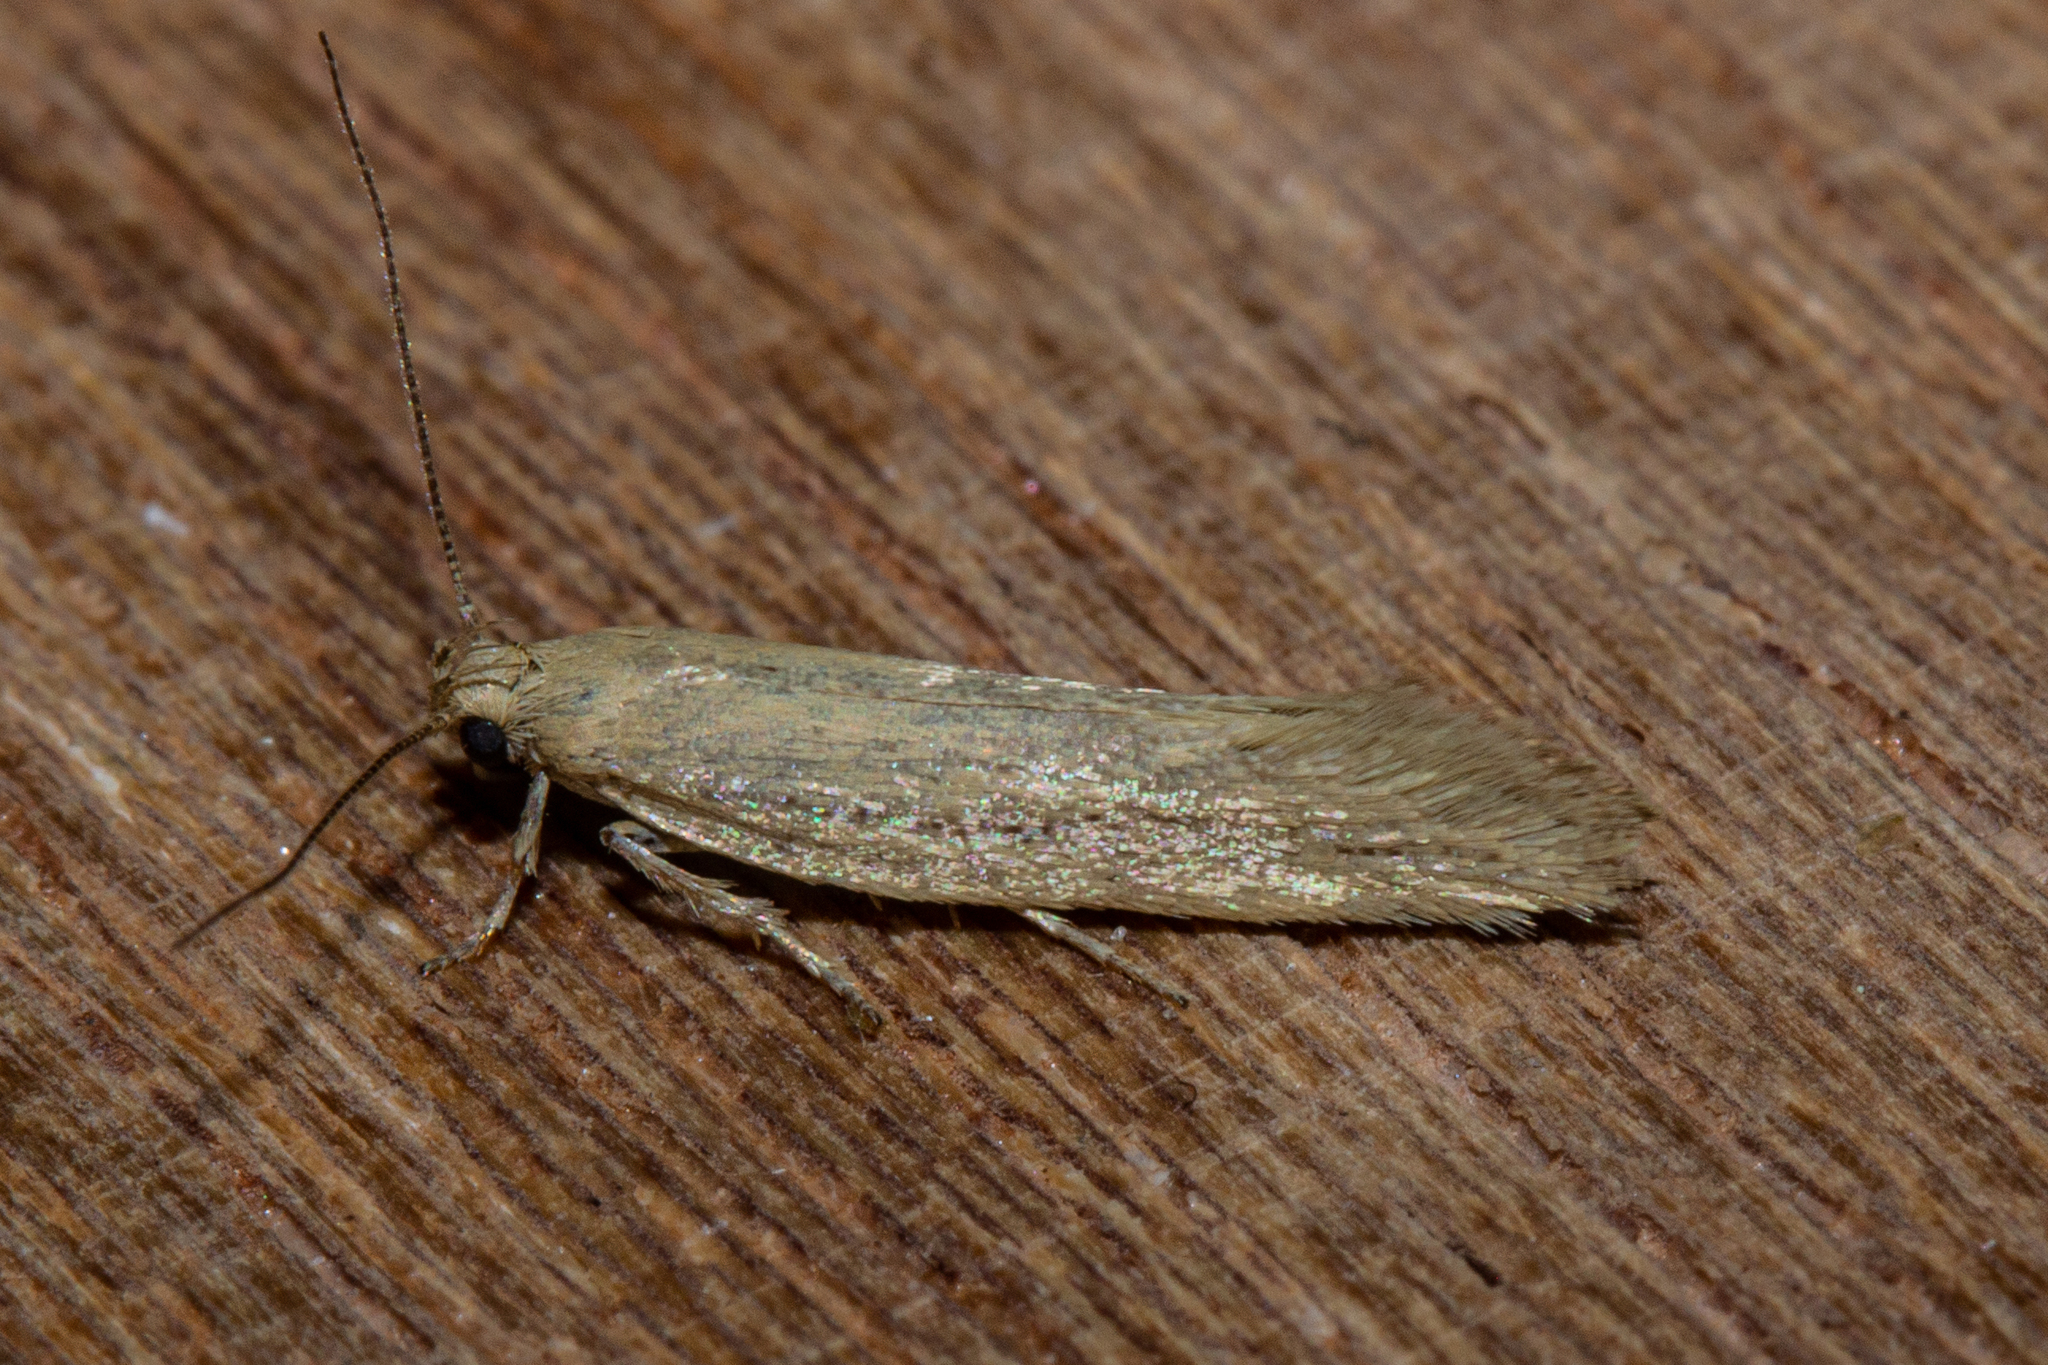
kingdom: Animalia
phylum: Arthropoda
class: Insecta
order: Lepidoptera
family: Oecophoridae
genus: Tingena
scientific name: Tingena maranta
